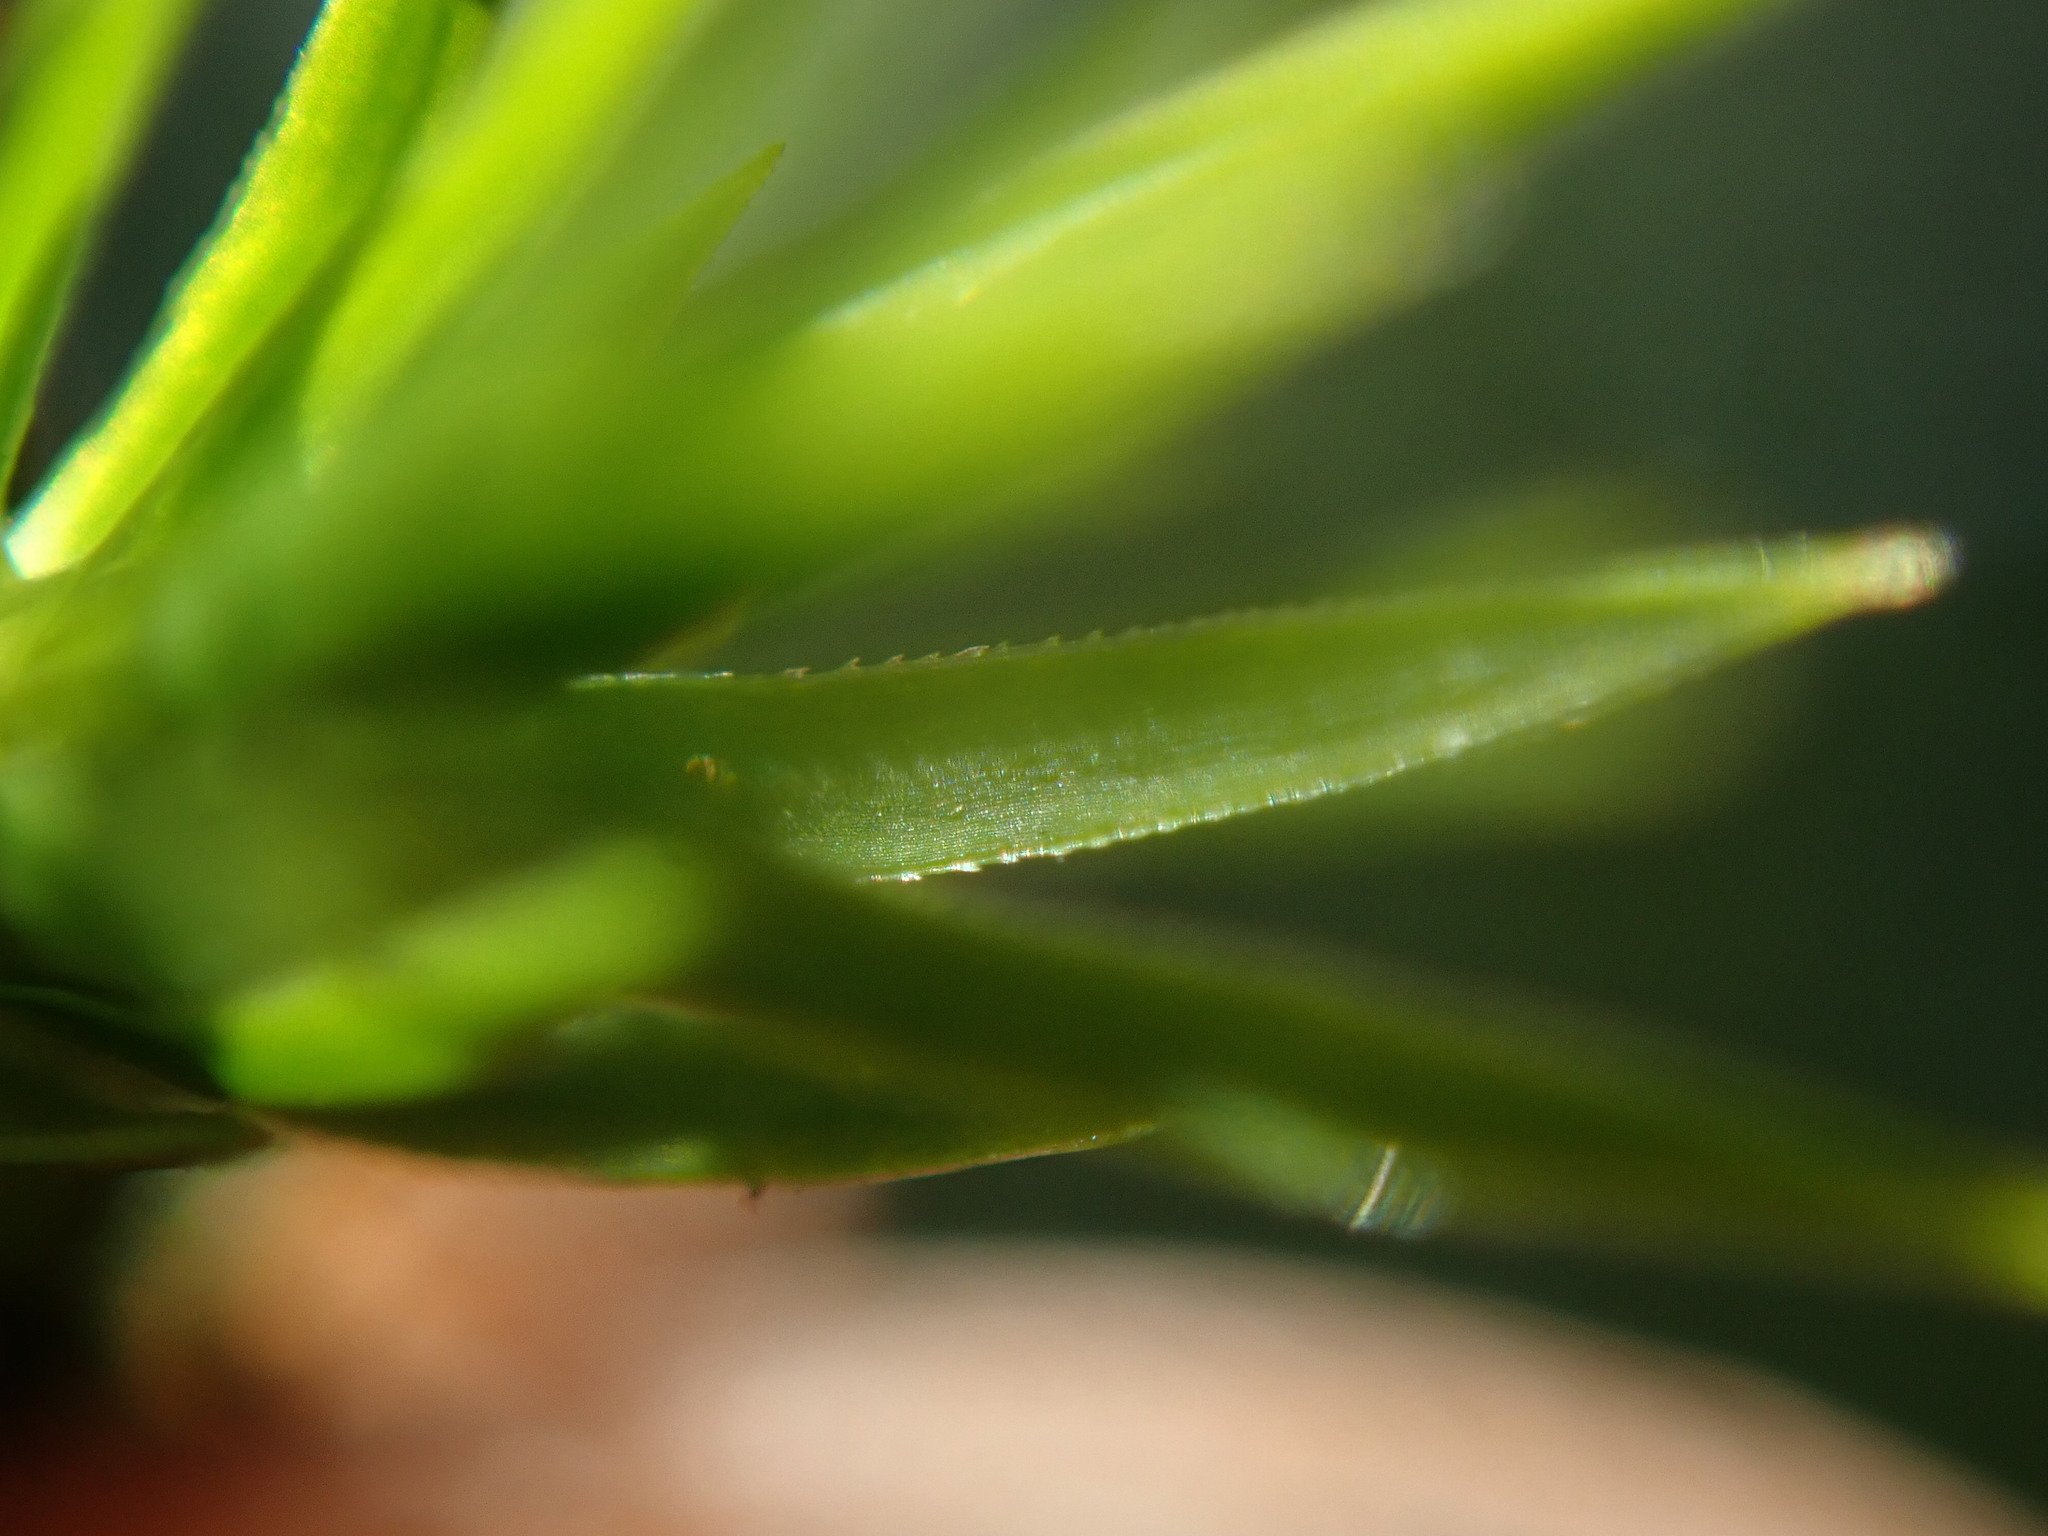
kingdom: Plantae
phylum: Bryophyta
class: Polytrichopsida
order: Polytrichales
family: Polytrichaceae
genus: Polytrichum
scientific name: Polytrichum formosum
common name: Bank haircap moss
